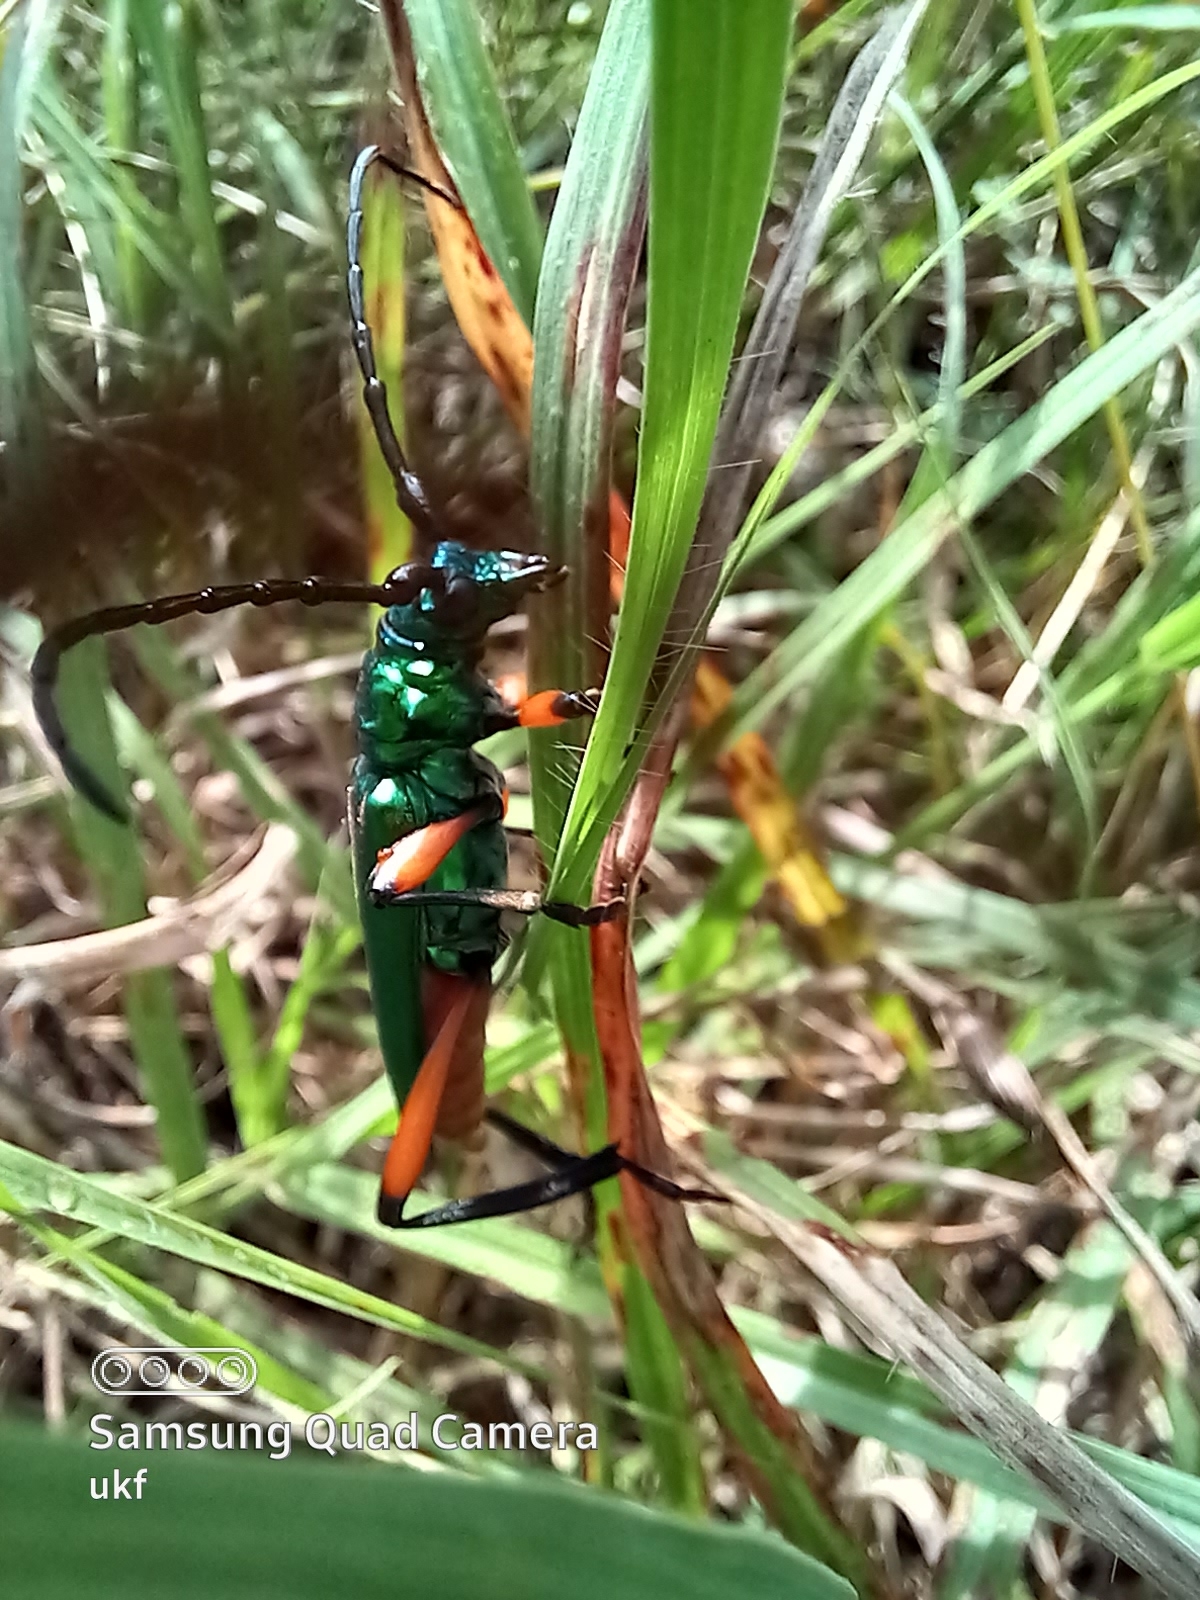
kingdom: Animalia
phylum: Arthropoda
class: Insecta
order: Coleoptera
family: Cerambycidae
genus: Plinthocoelium
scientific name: Plinthocoelium suaveolens
